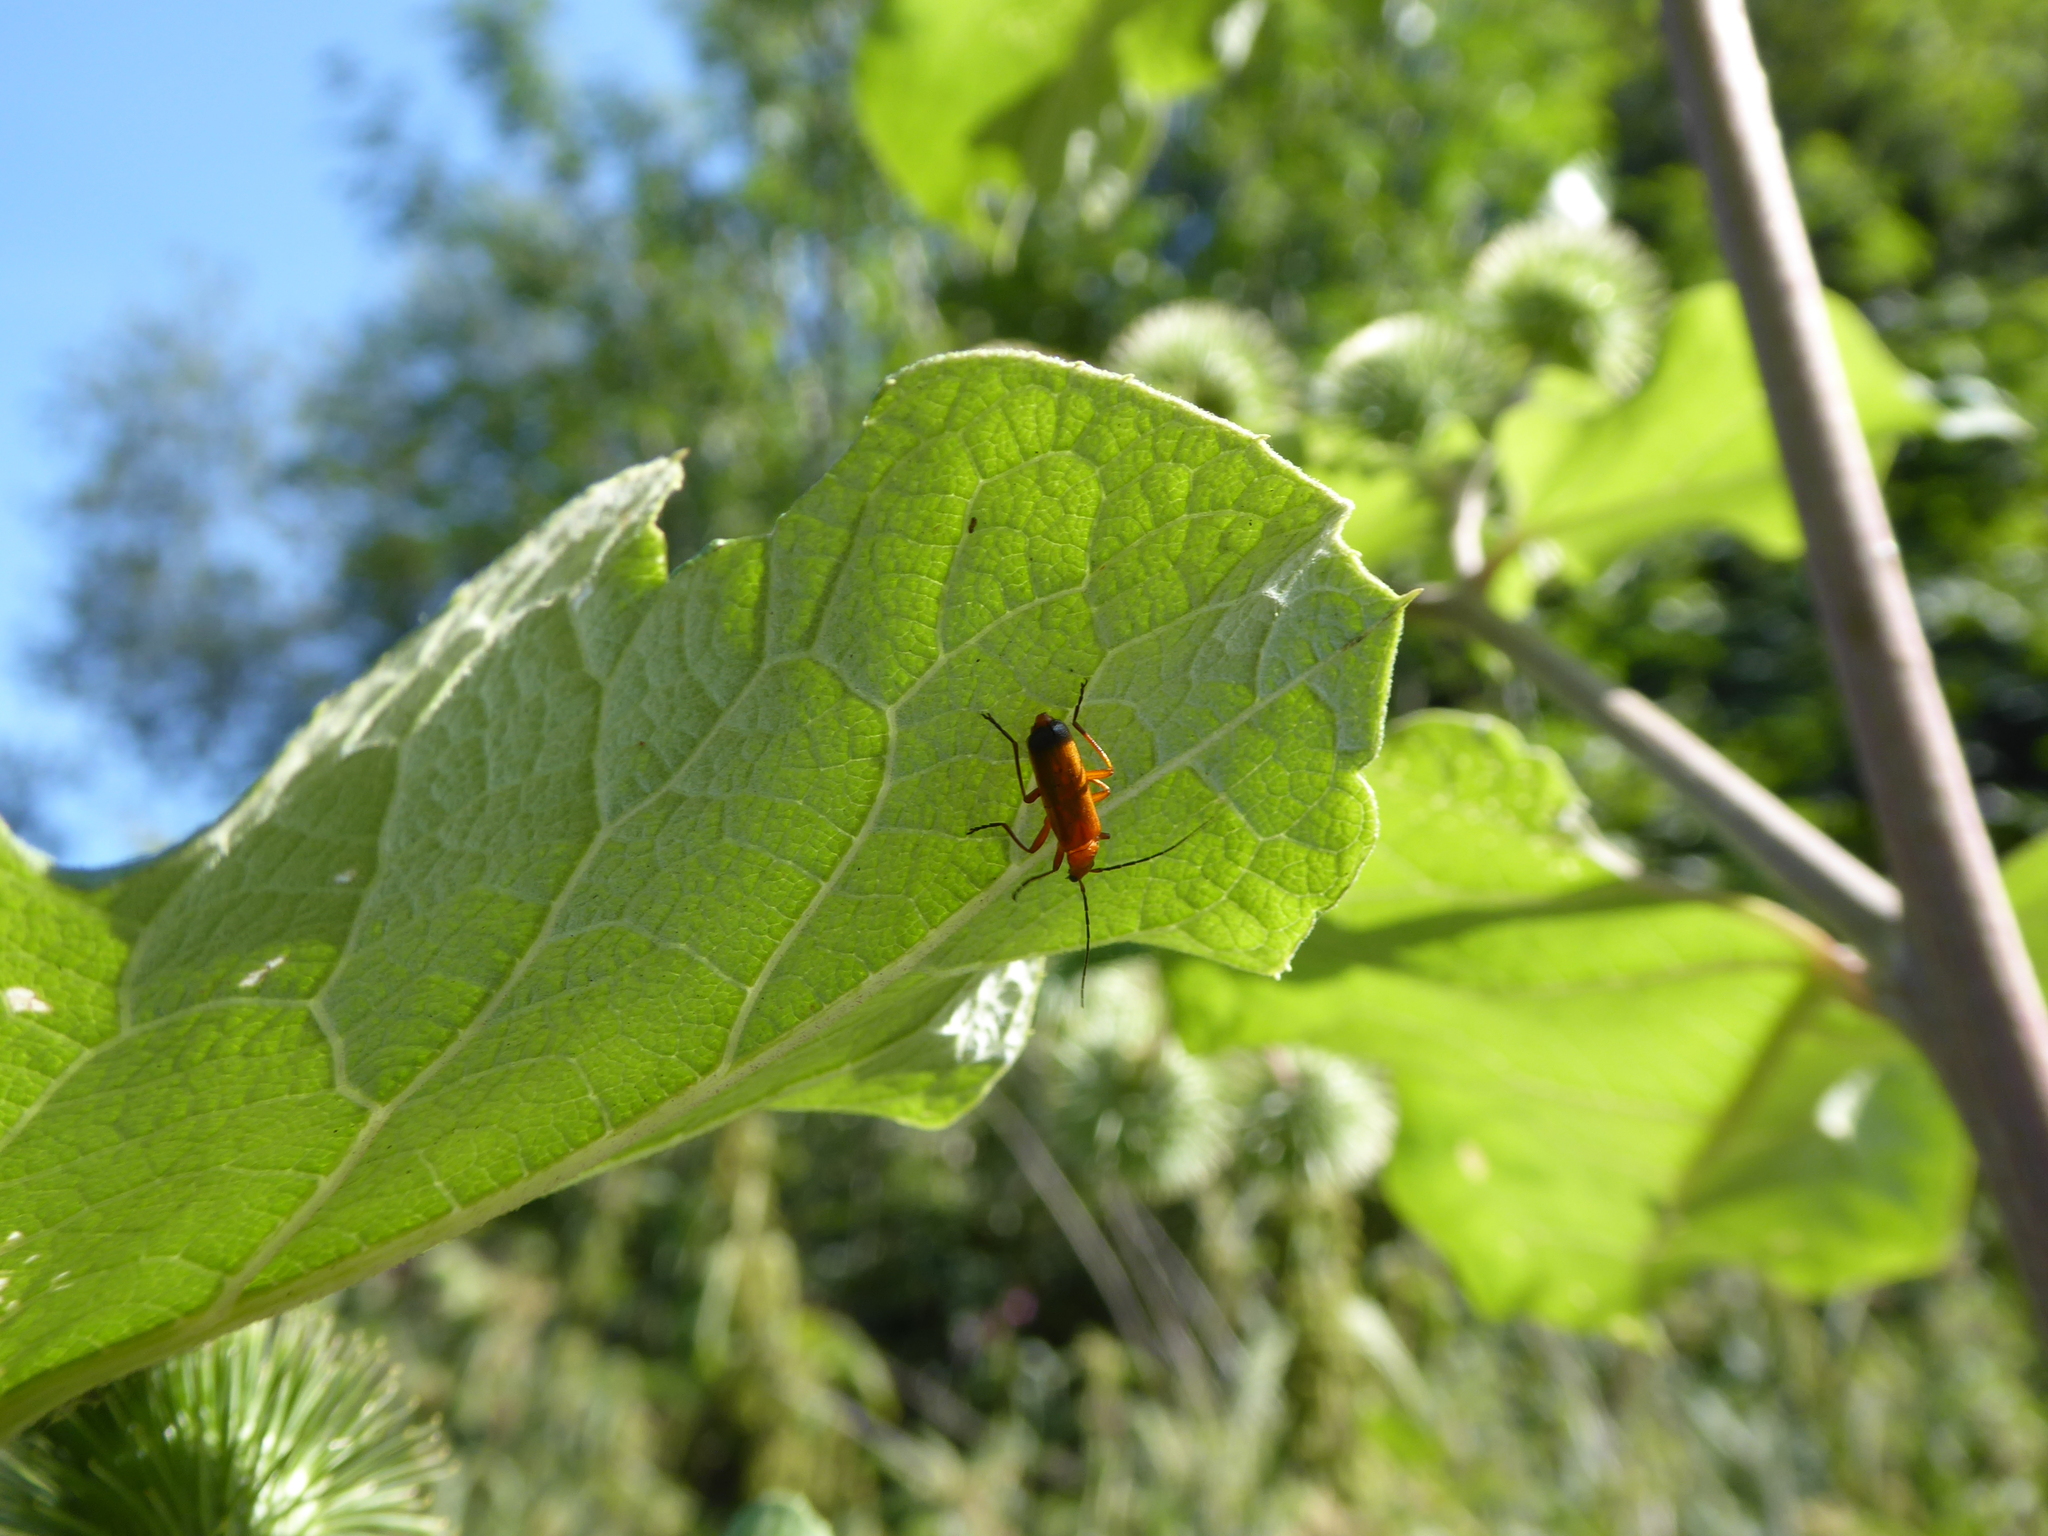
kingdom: Animalia
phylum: Arthropoda
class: Insecta
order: Coleoptera
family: Cantharidae
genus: Rhagonycha
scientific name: Rhagonycha fulva
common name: Common red soldier beetle
